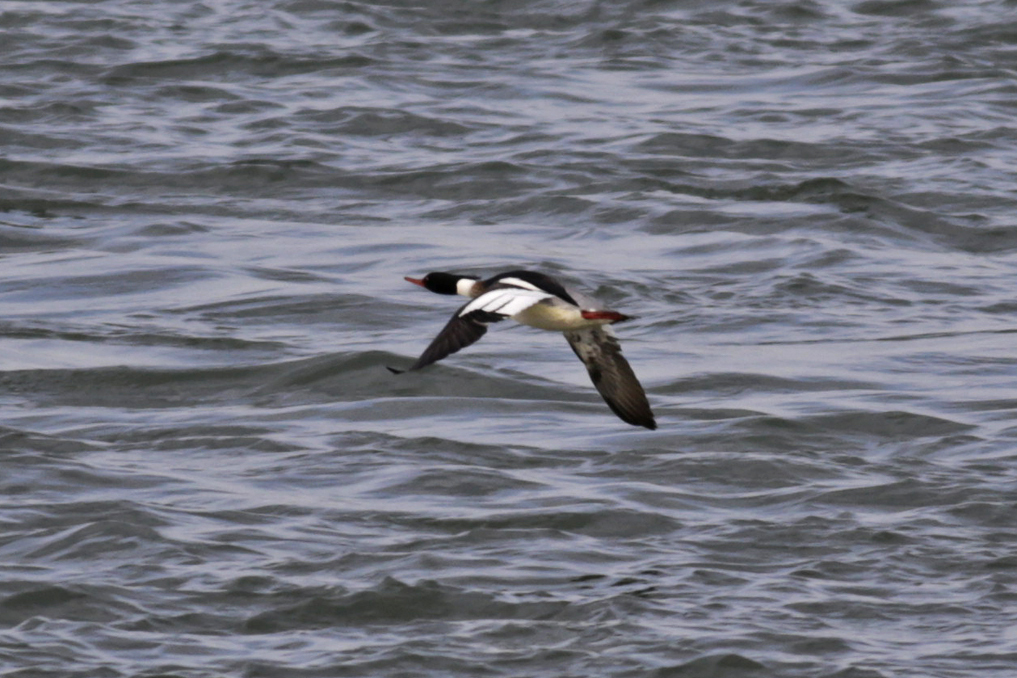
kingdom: Animalia
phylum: Chordata
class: Aves
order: Anseriformes
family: Anatidae
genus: Mergus
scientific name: Mergus serrator
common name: Red-breasted merganser
